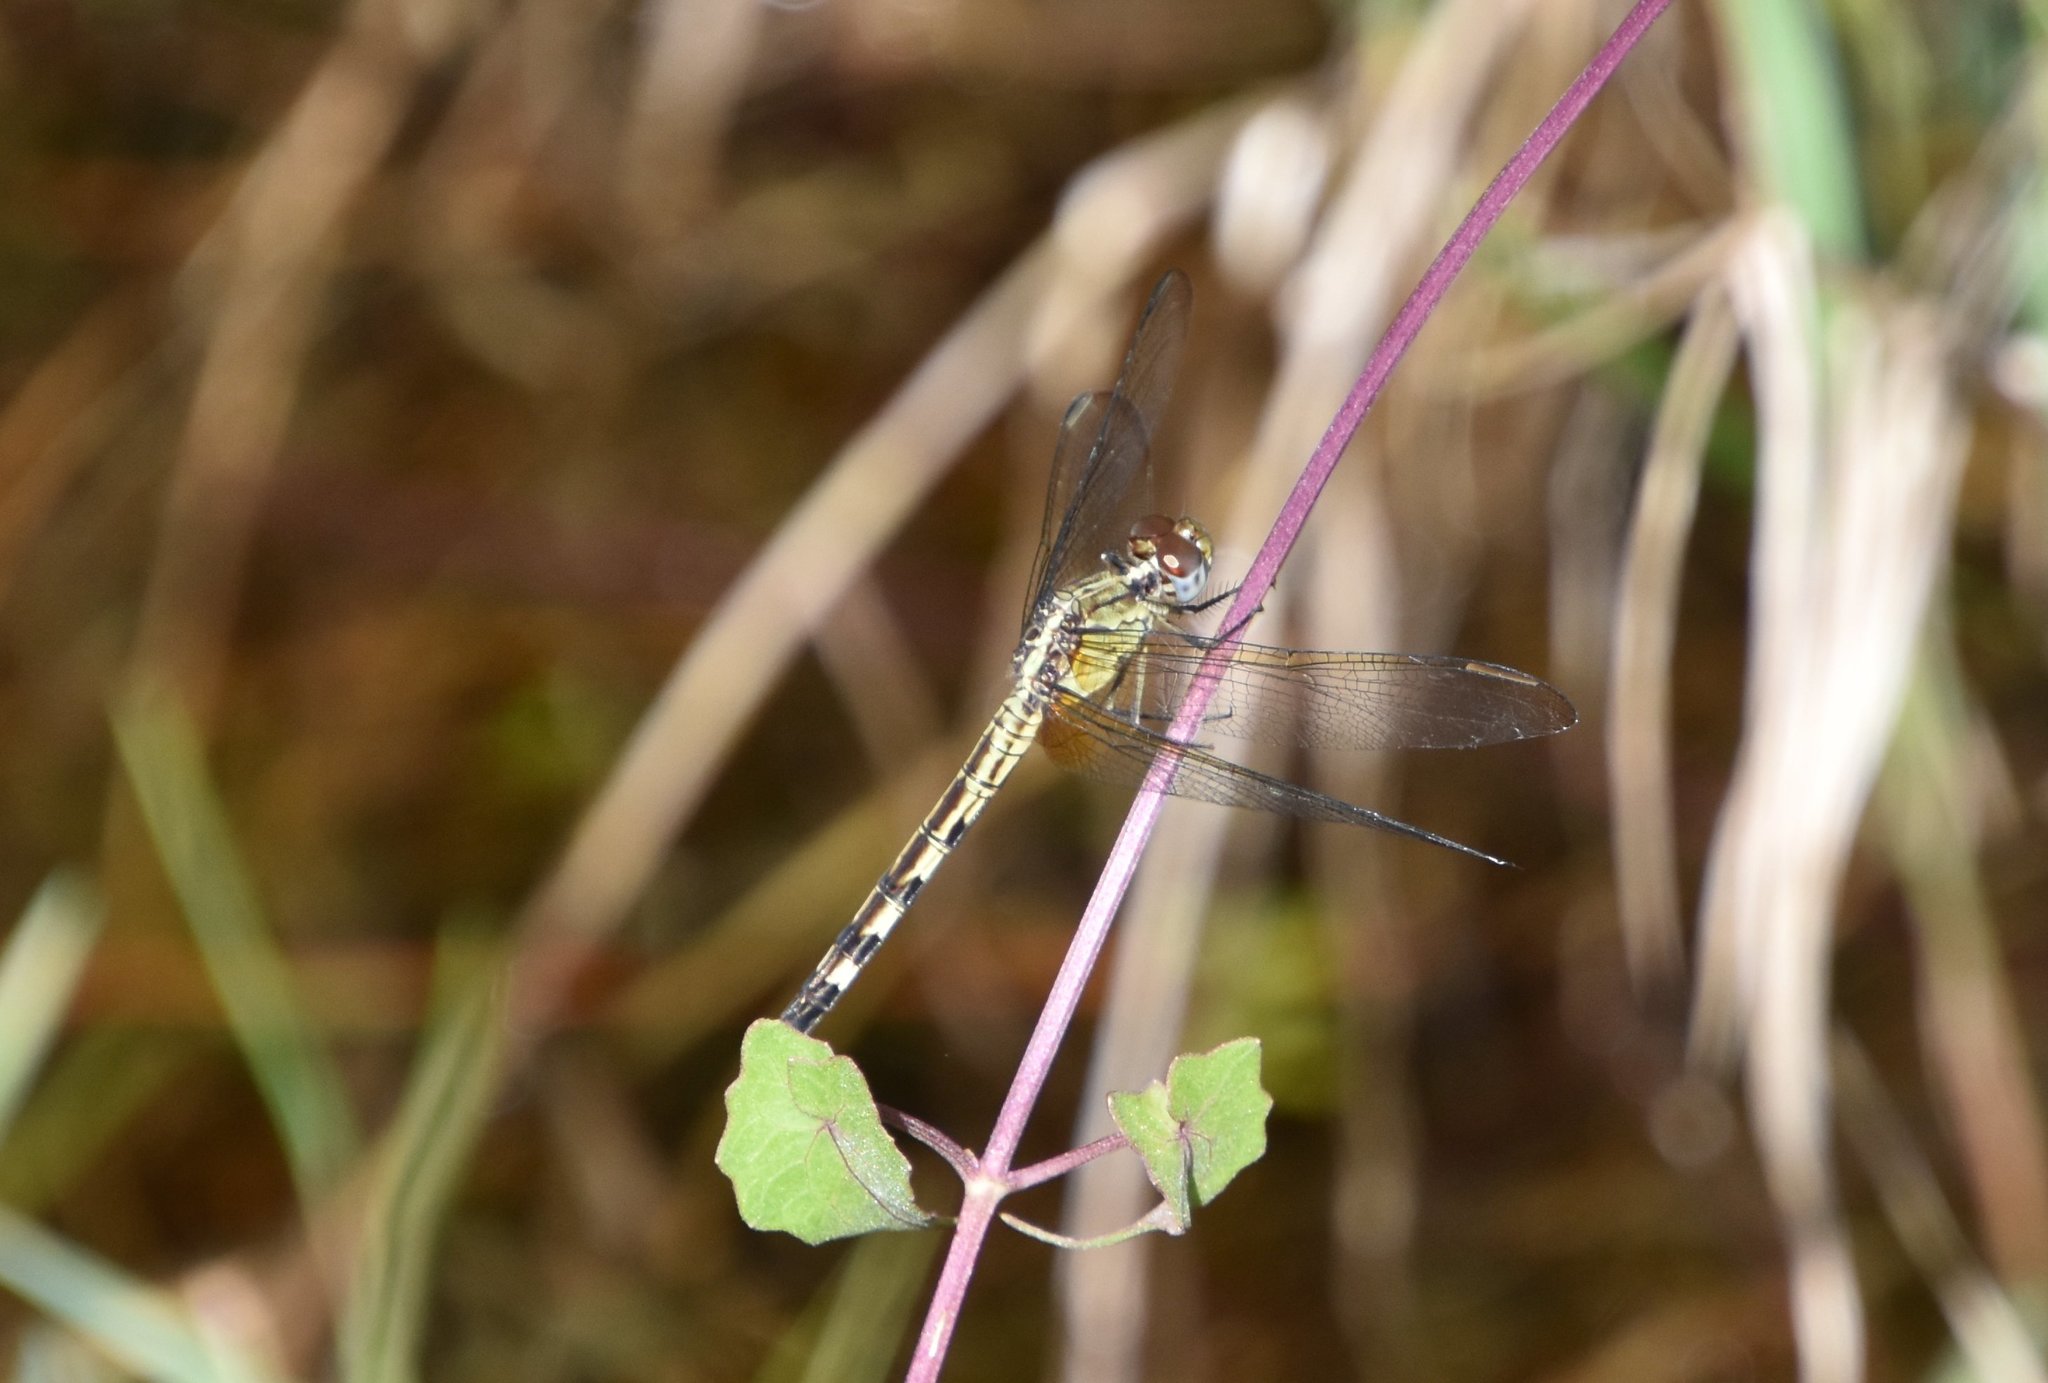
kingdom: Animalia
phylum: Arthropoda
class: Insecta
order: Odonata
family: Libellulidae
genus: Erythrodiplax
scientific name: Erythrodiplax umbrata
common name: Band-winged dragonlet
